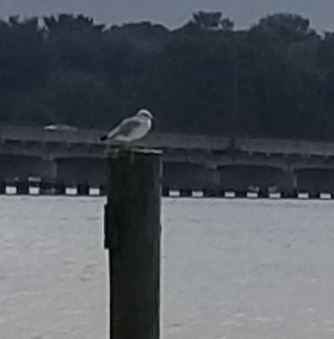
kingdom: Animalia
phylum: Chordata
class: Aves
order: Charadriiformes
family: Laridae
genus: Larus
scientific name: Larus
